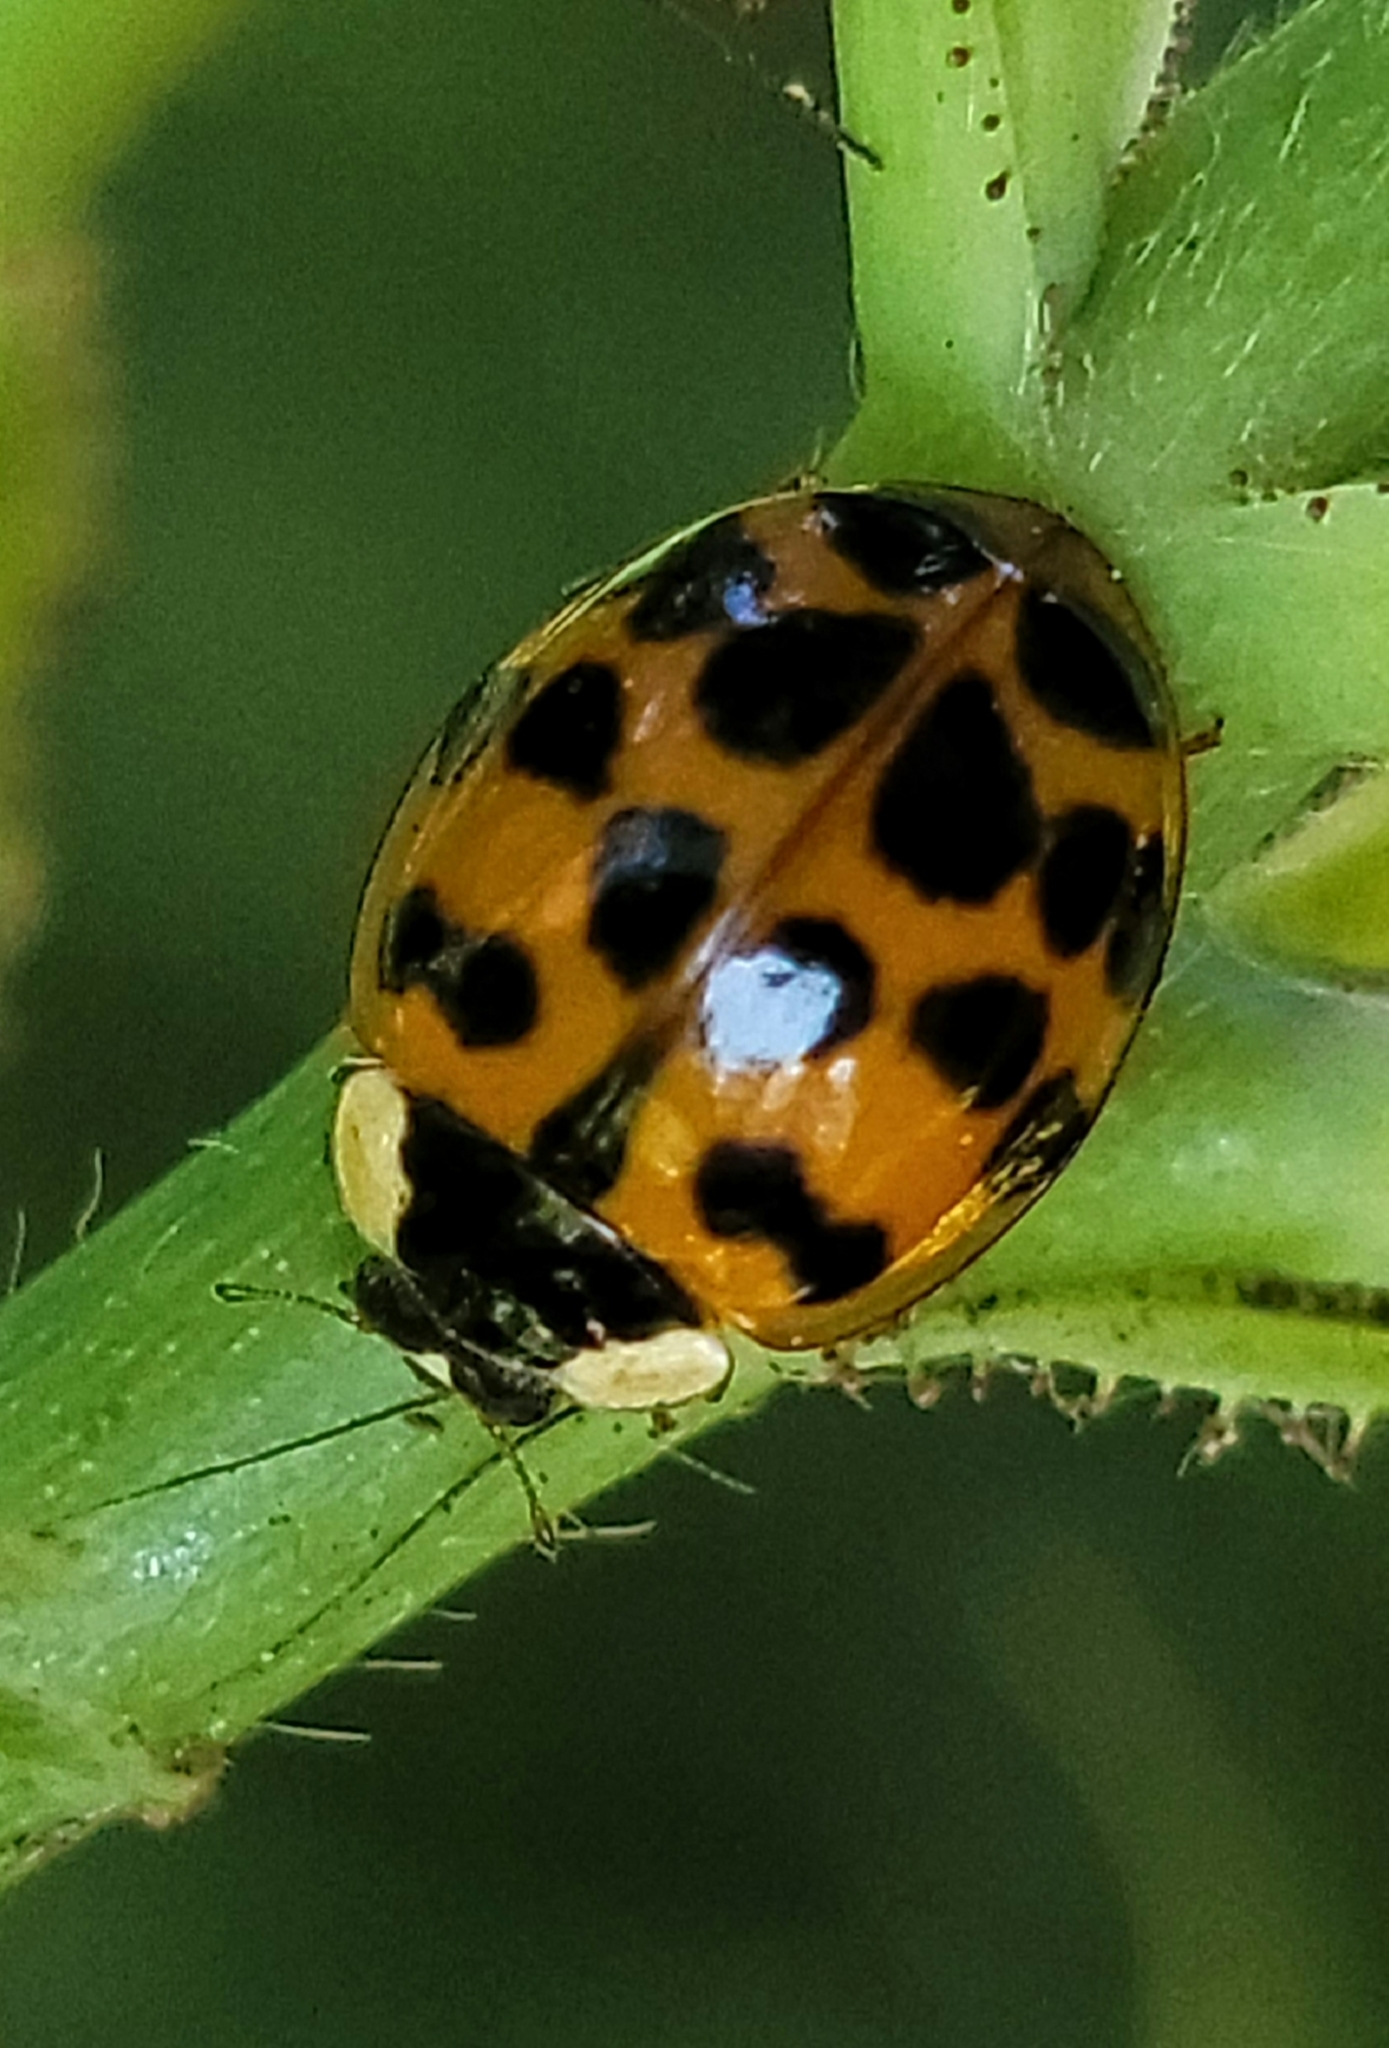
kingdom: Animalia
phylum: Arthropoda
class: Insecta
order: Coleoptera
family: Coccinellidae
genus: Harmonia
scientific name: Harmonia axyridis
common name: Harlequin ladybird
